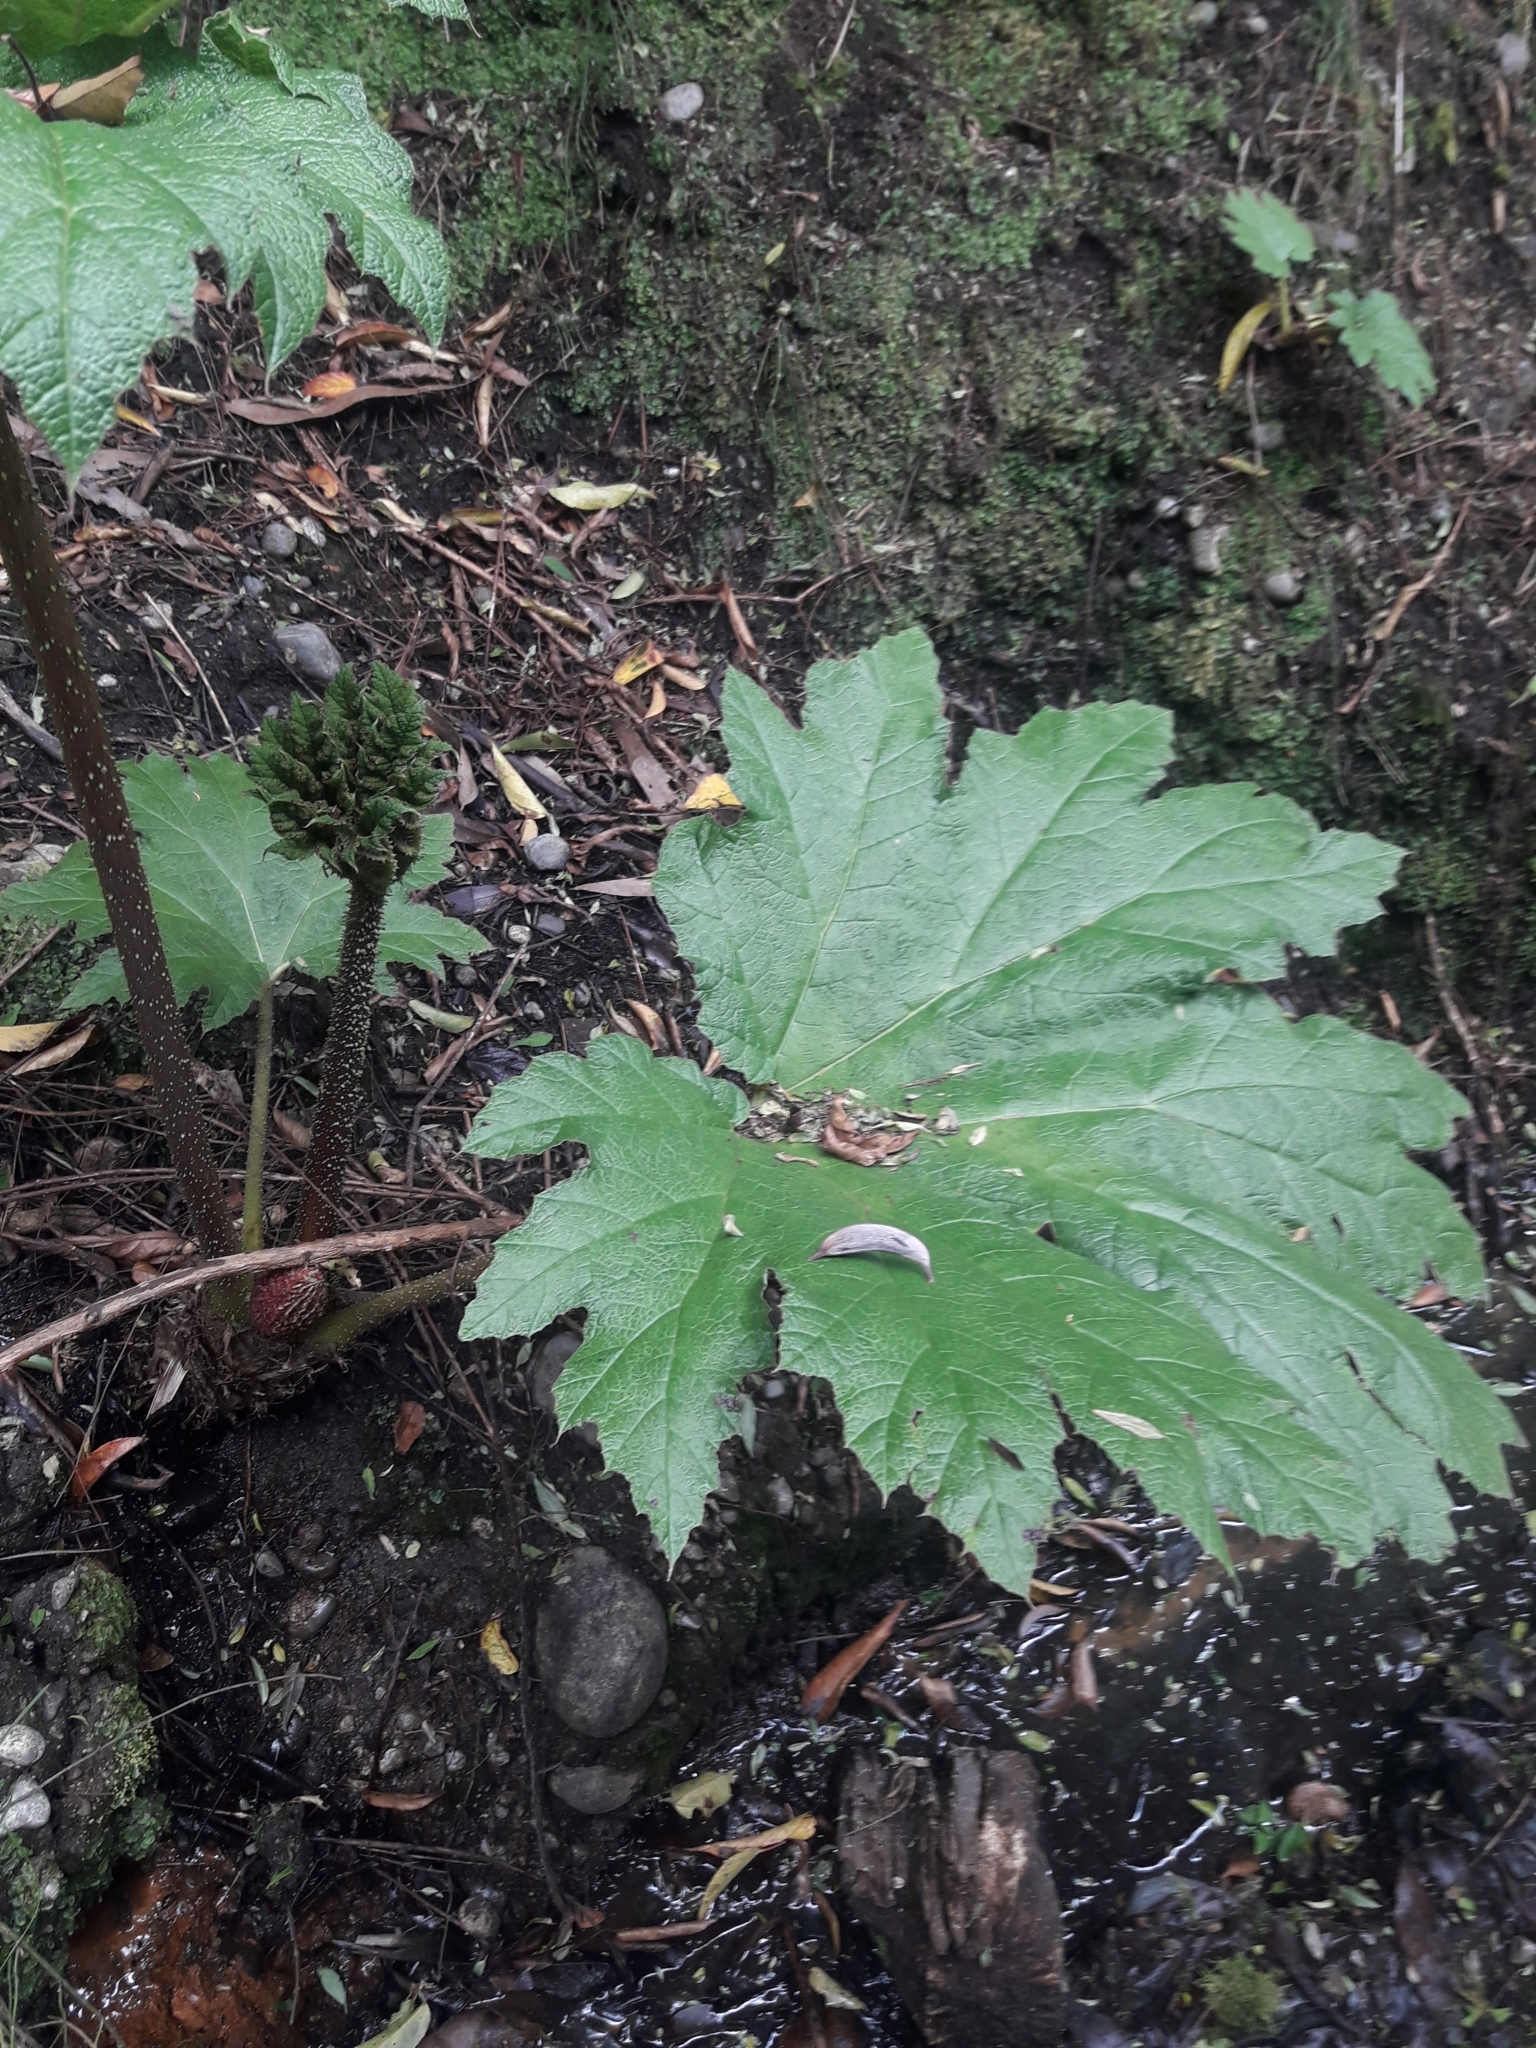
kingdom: Plantae
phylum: Tracheophyta
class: Magnoliopsida
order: Gunnerales
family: Gunneraceae
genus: Gunnera
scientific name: Gunnera tinctoria
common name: Giant-rhubarb
